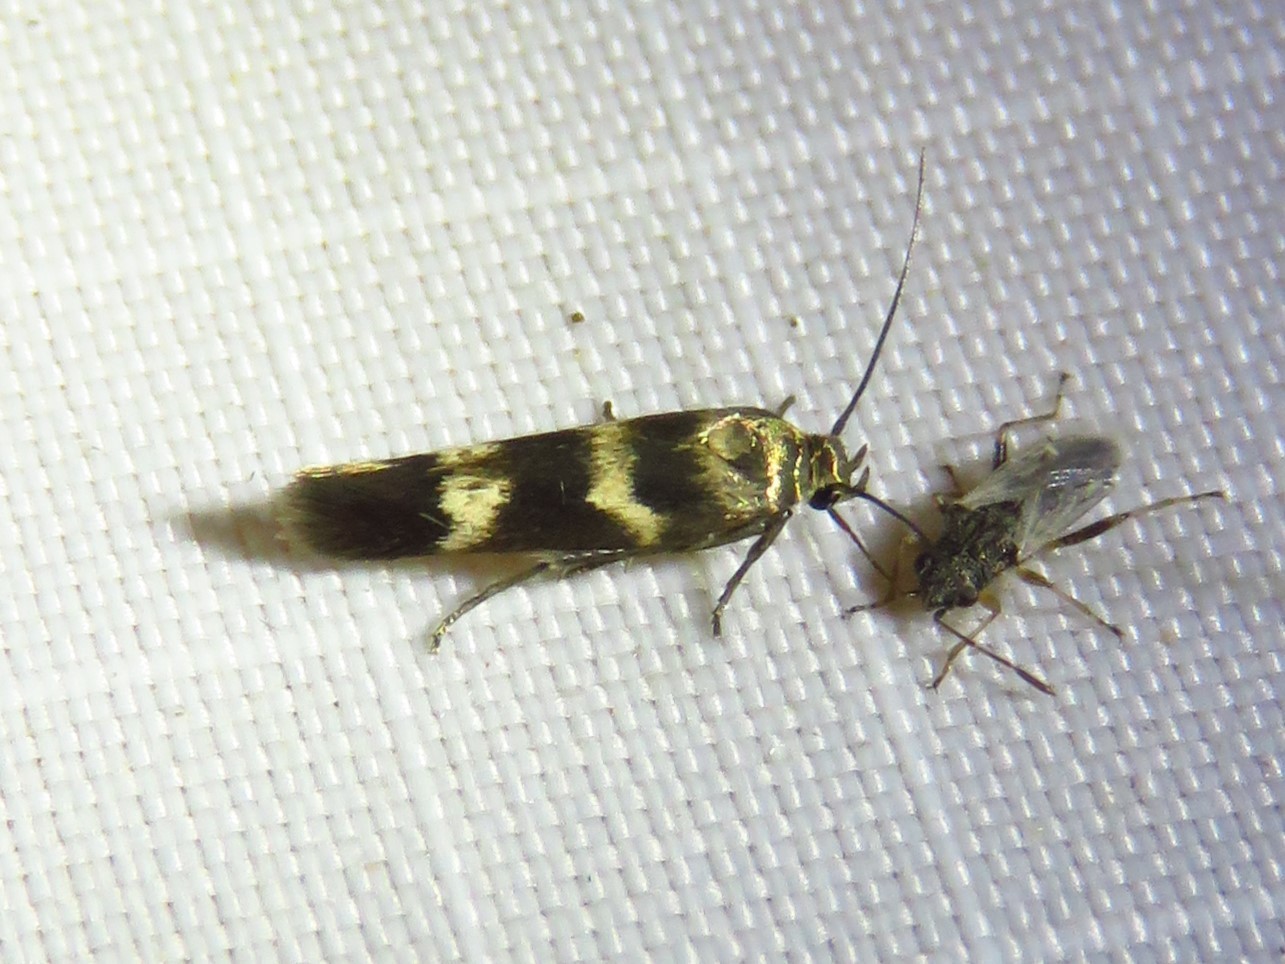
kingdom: Animalia
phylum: Arthropoda
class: Insecta
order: Lepidoptera
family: Scythrididae
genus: Scythris
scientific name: Scythris trivinctella
